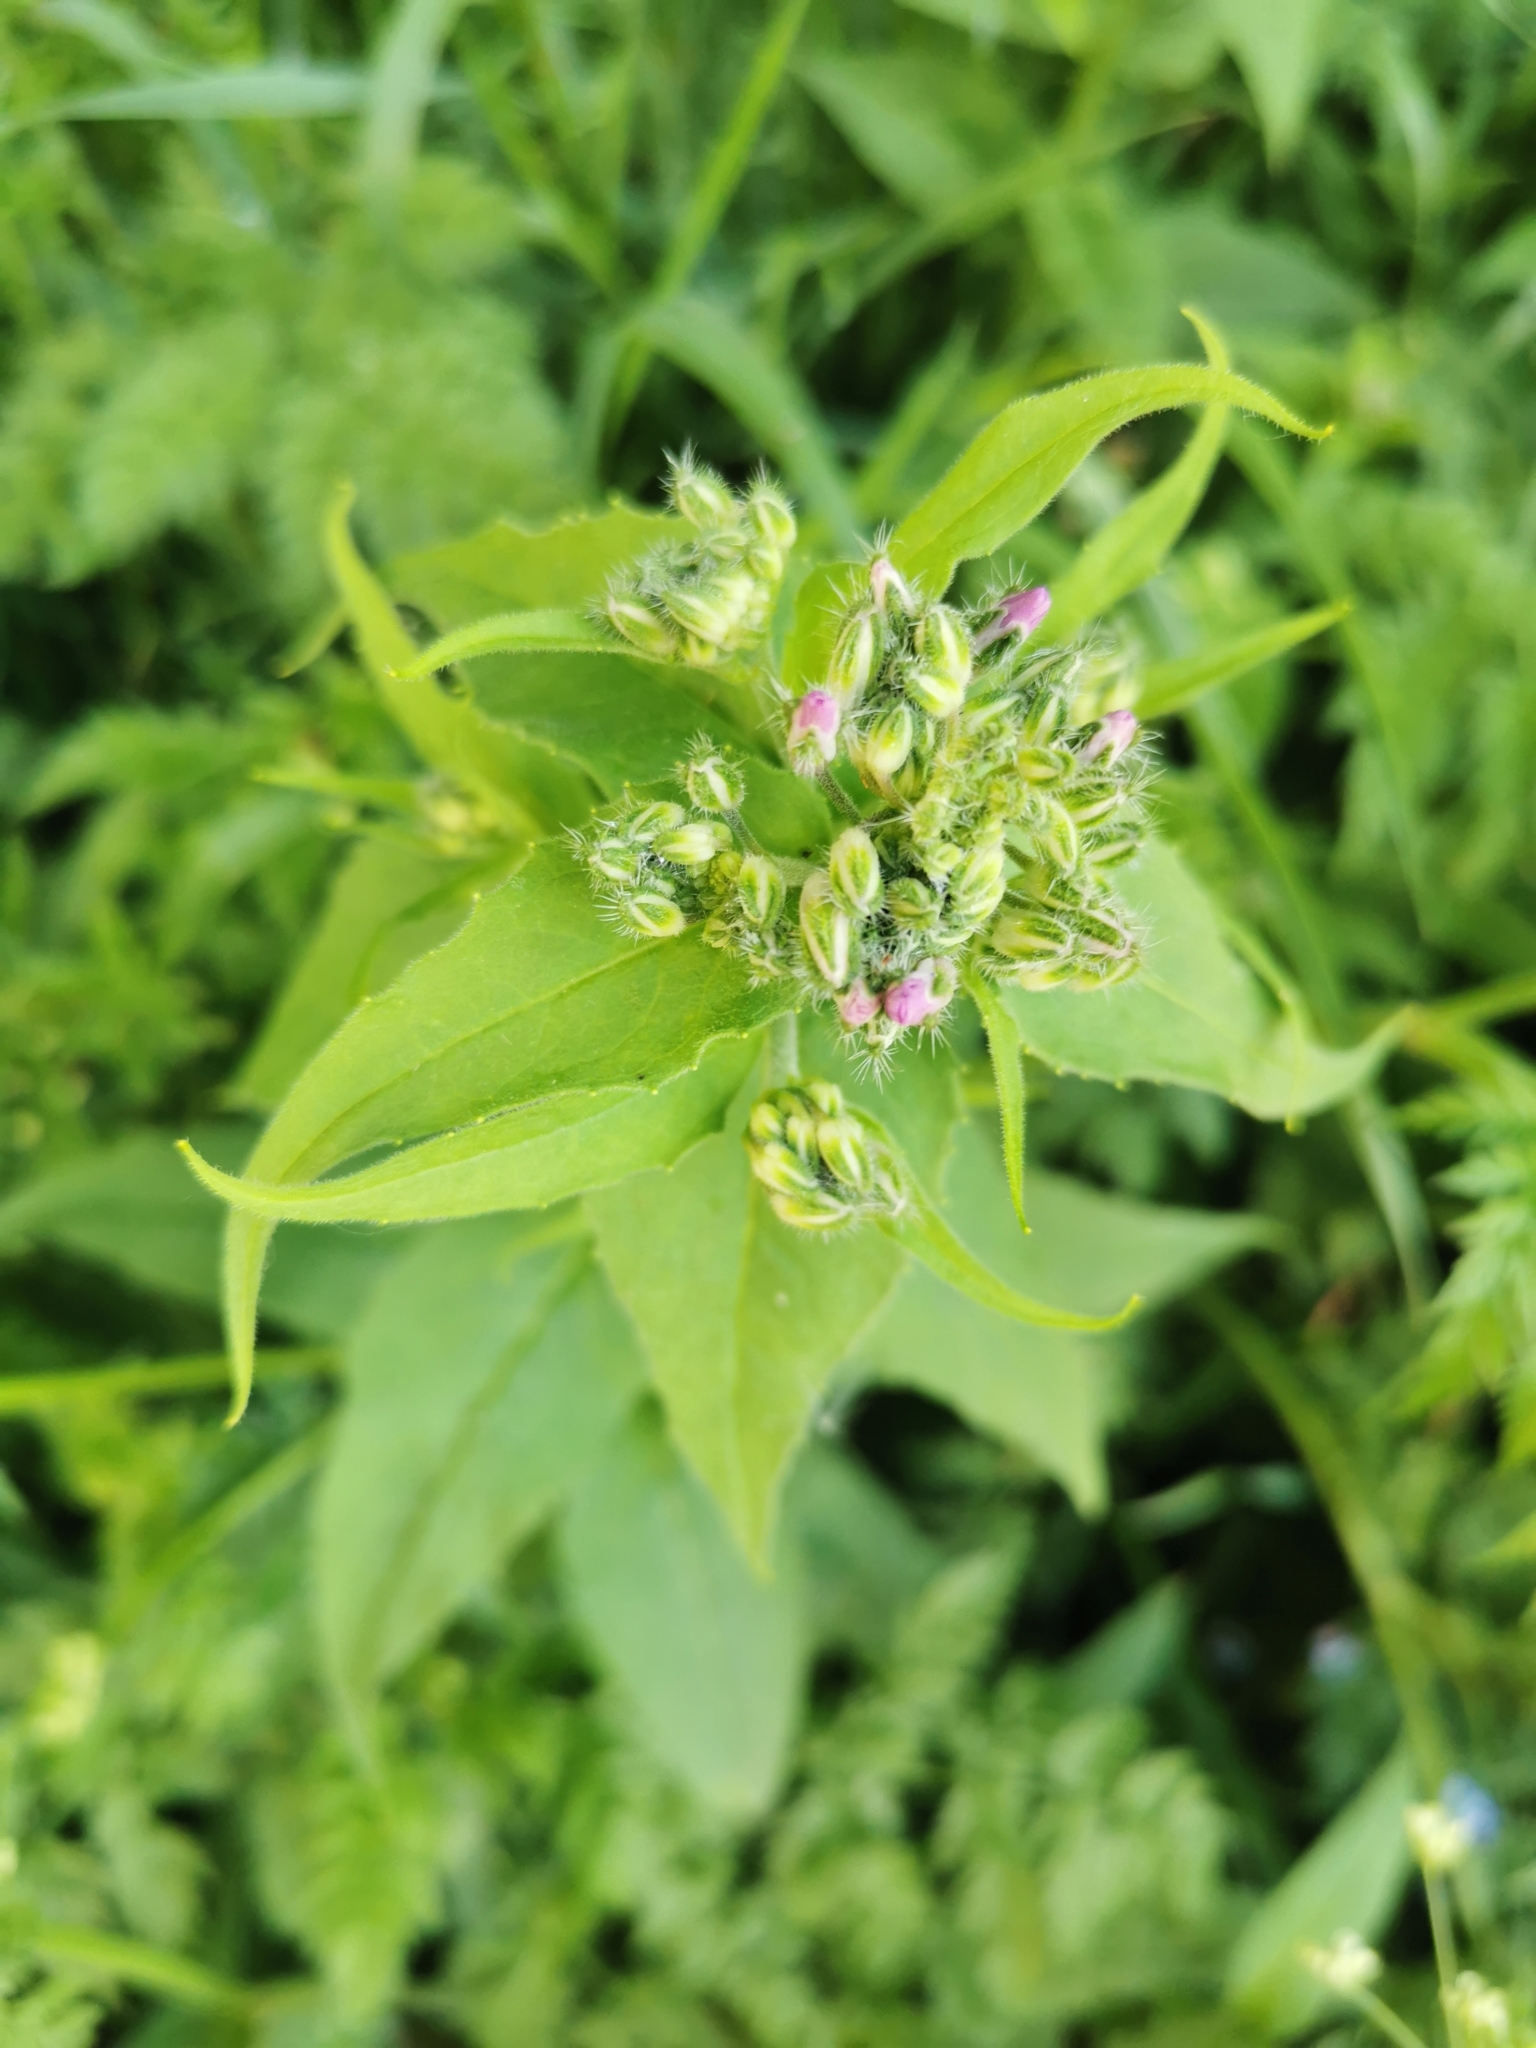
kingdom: Plantae
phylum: Tracheophyta
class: Magnoliopsida
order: Brassicales
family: Brassicaceae
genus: Hesperis
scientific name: Hesperis matronalis
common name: Dame's-violet
